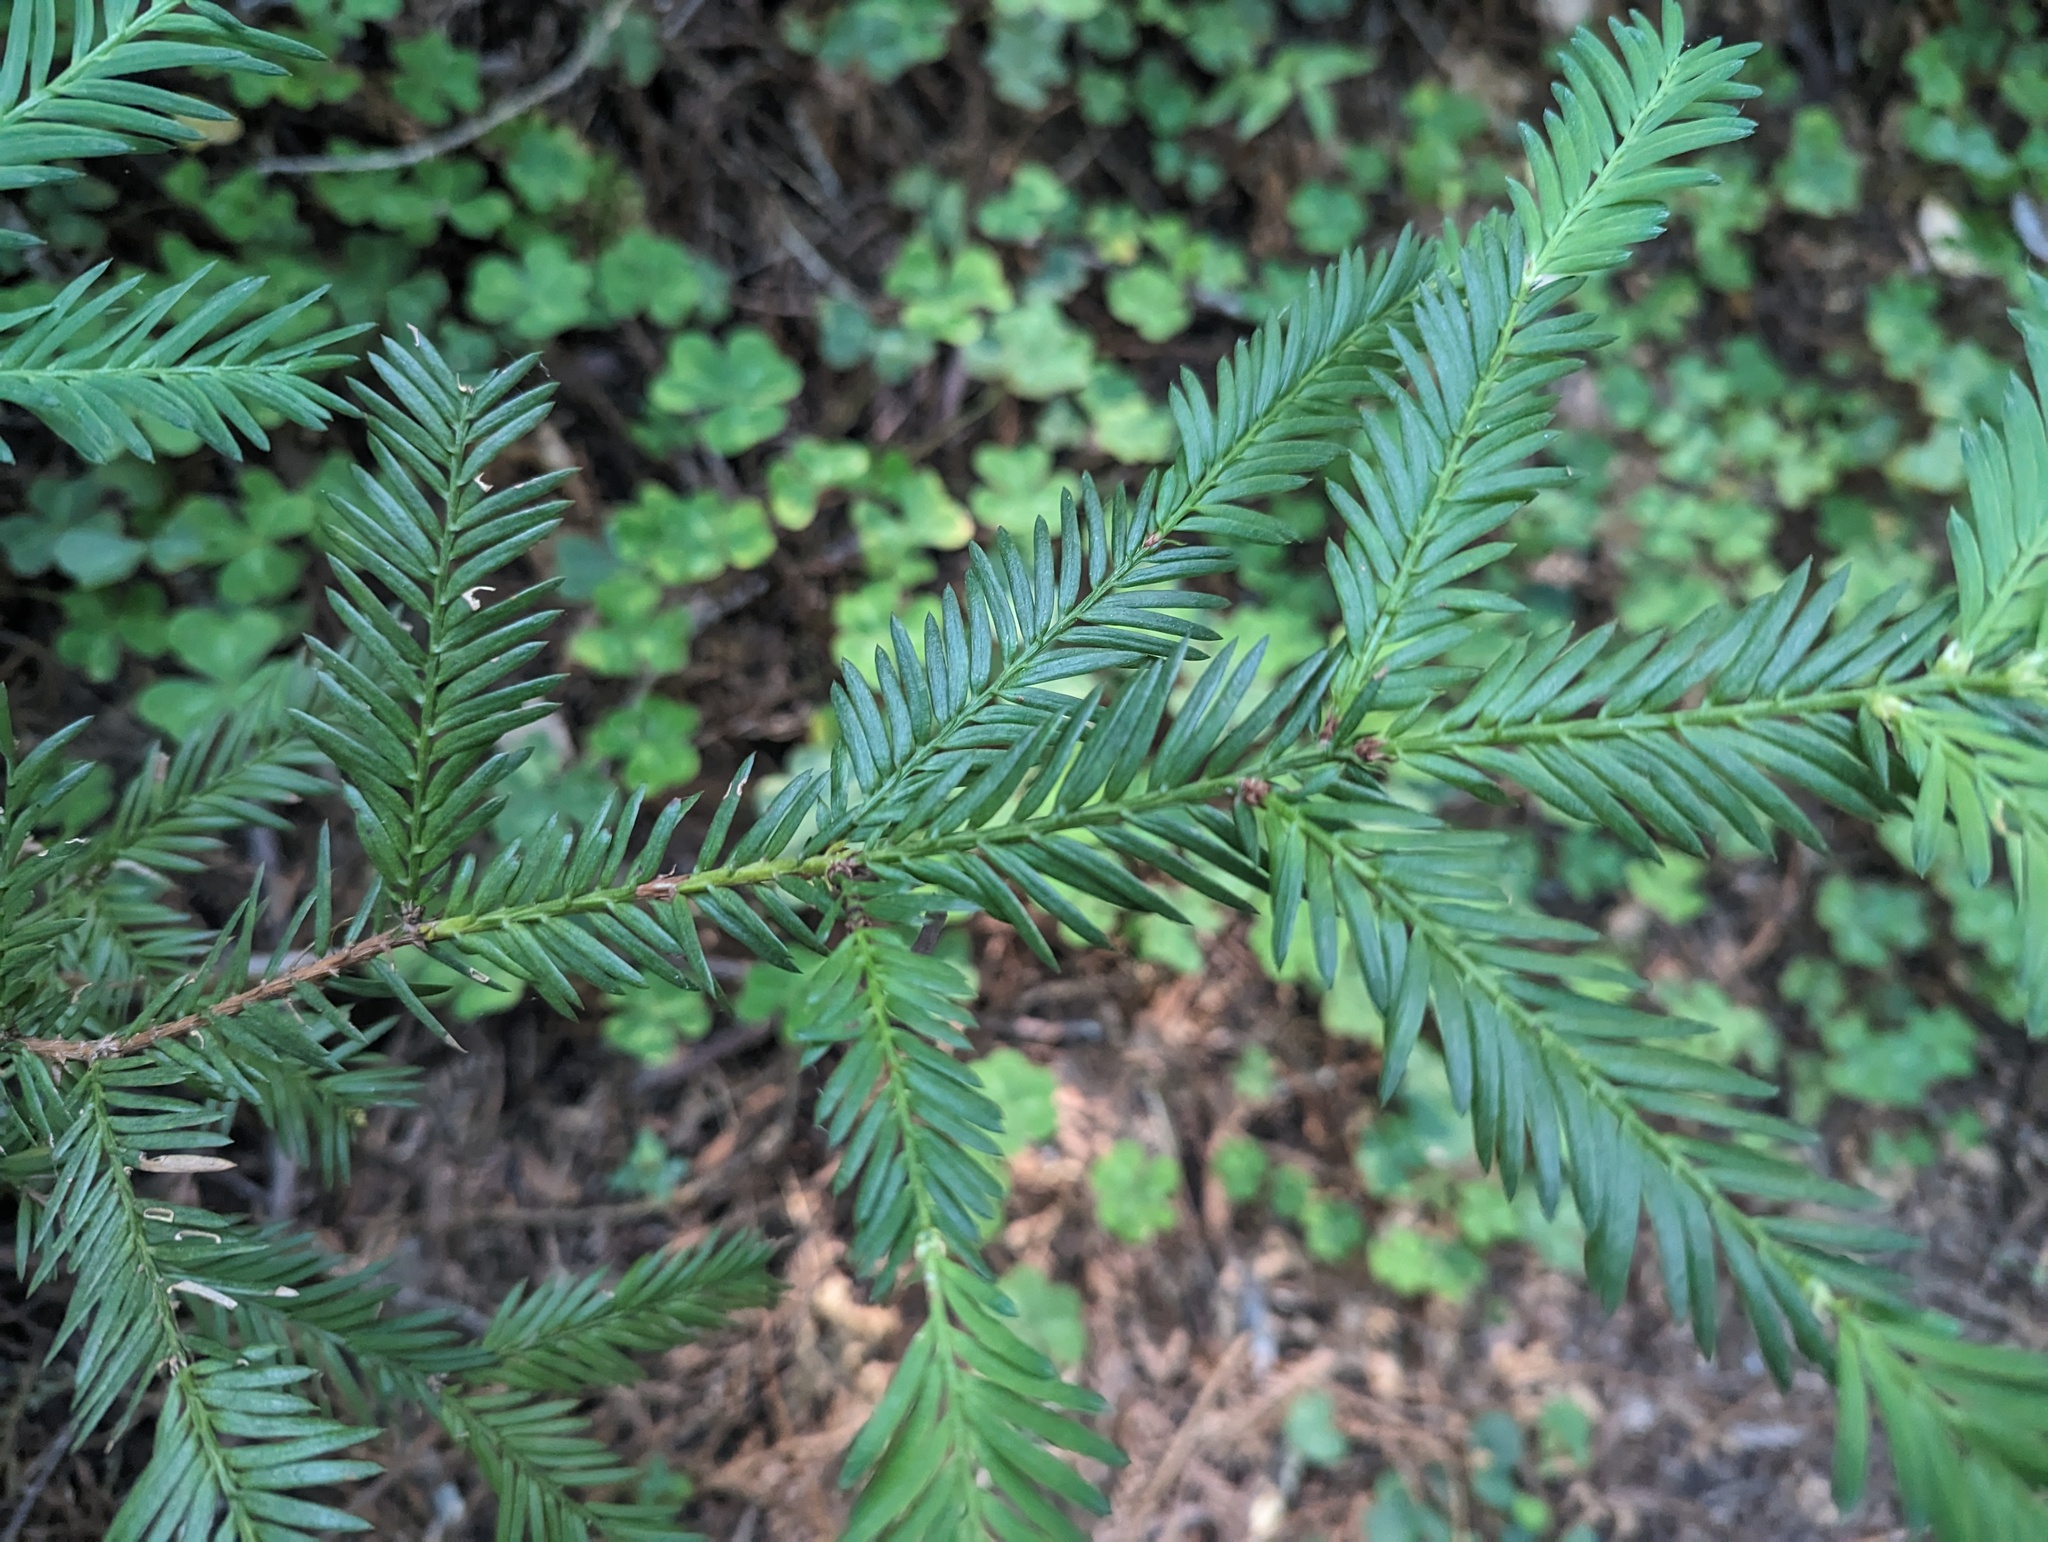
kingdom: Plantae
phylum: Tracheophyta
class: Pinopsida
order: Pinales
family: Cupressaceae
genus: Sequoia
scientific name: Sequoia sempervirens
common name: Coast redwood
